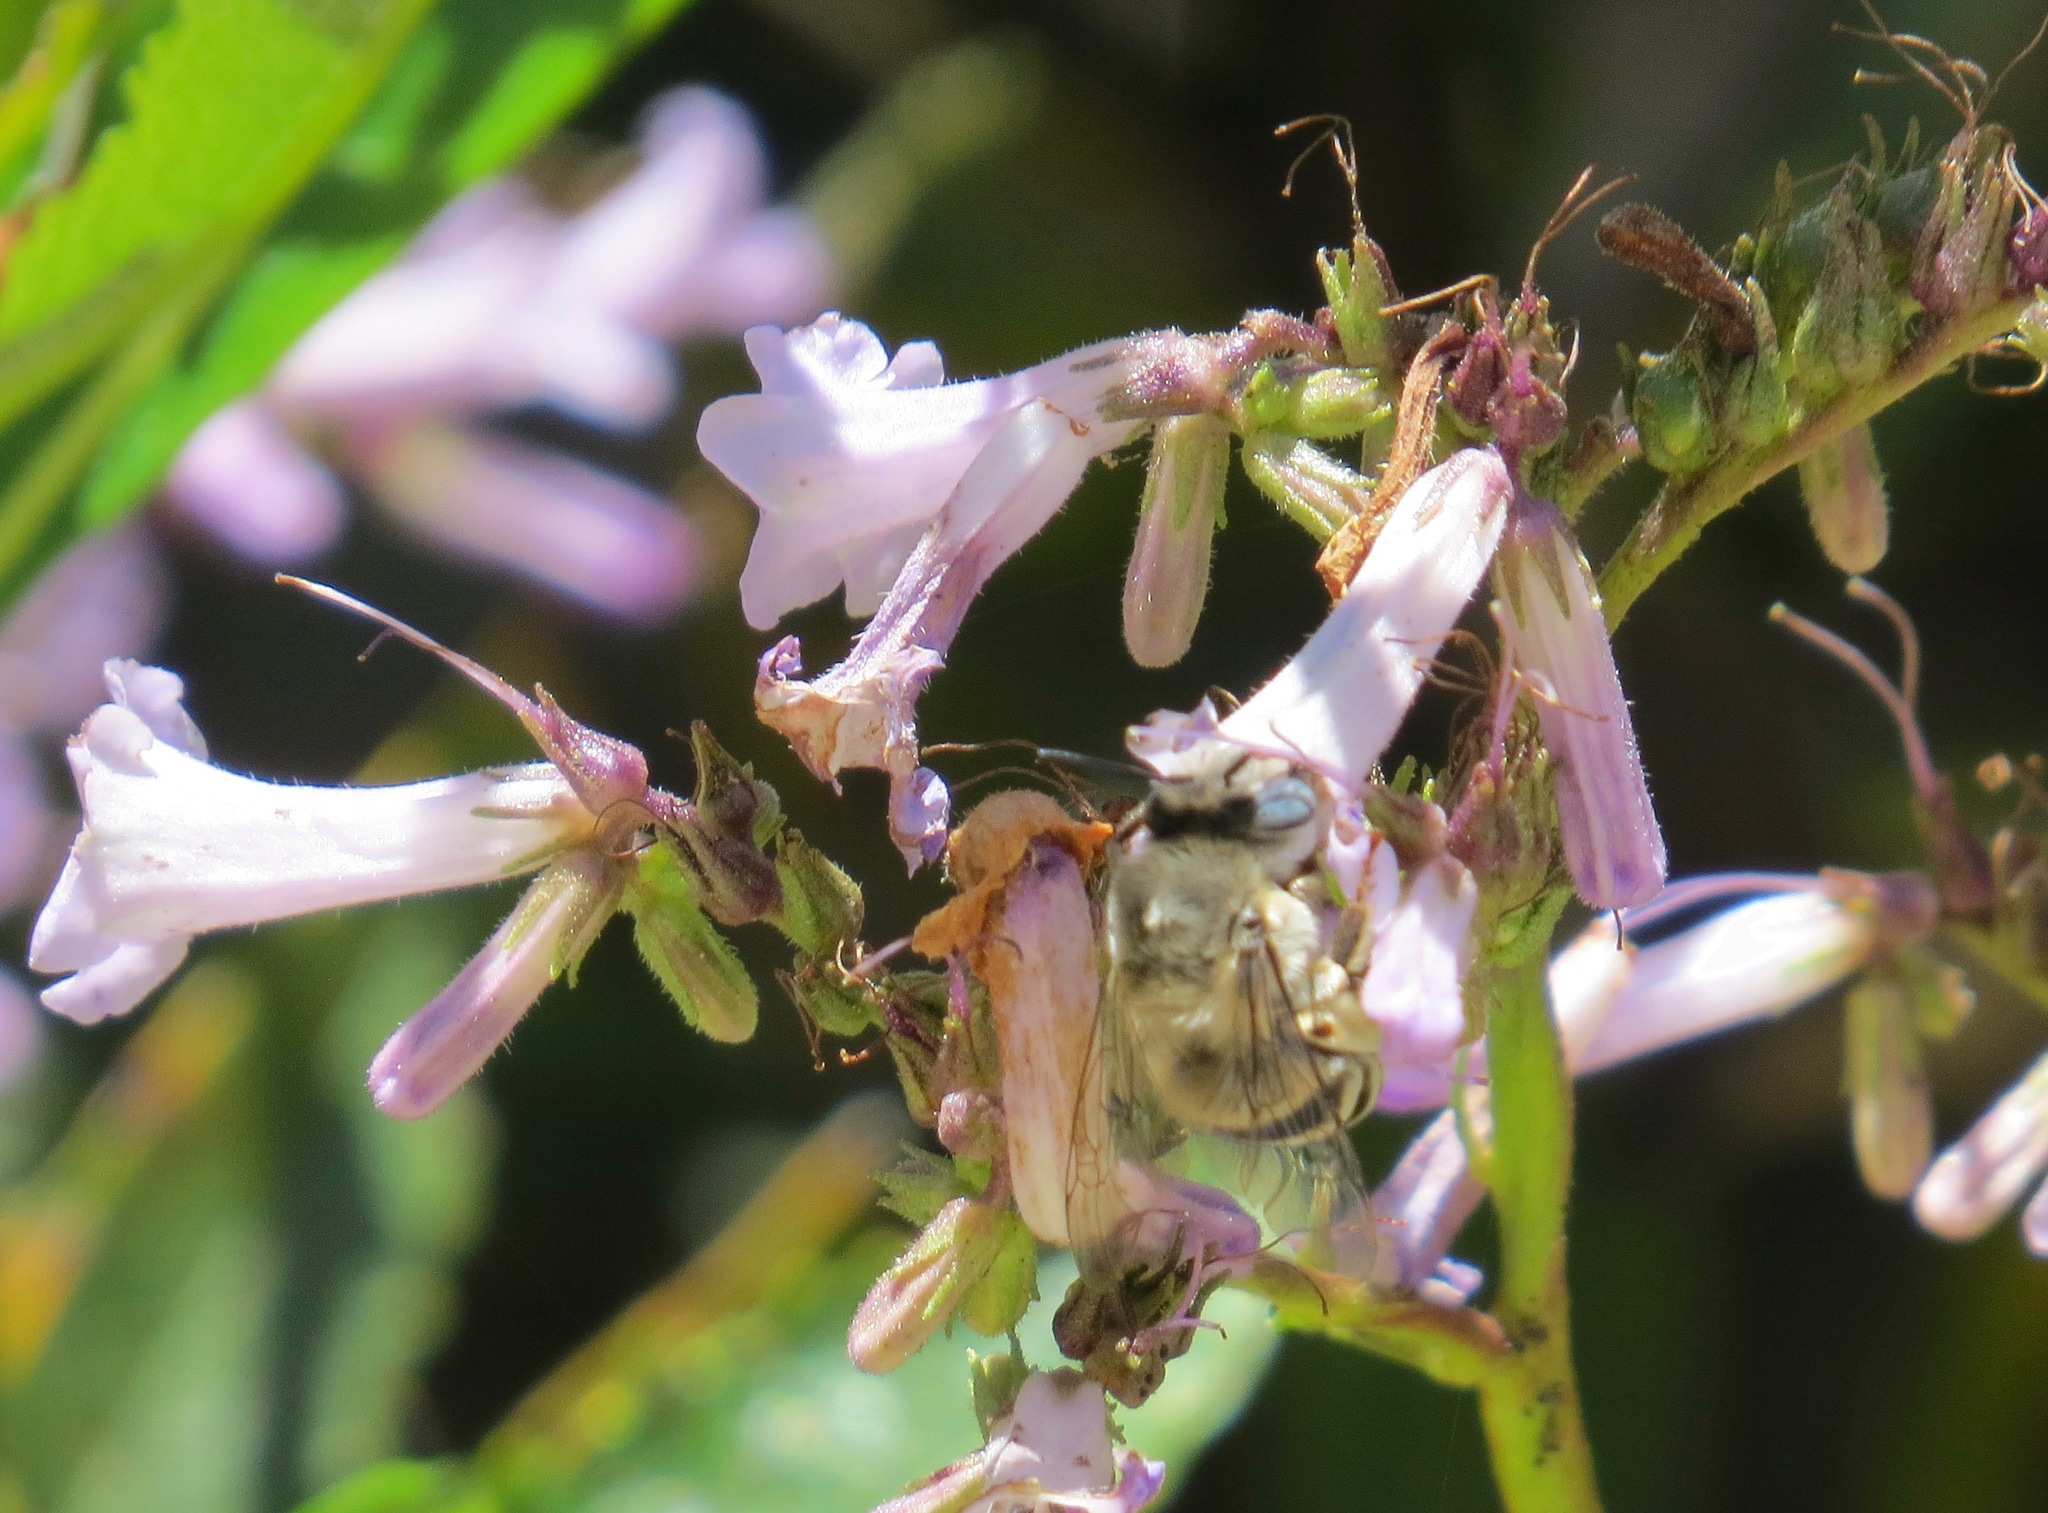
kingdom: Animalia
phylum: Arthropoda
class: Insecta
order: Hymenoptera
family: Apidae
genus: Anthophora
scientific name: Anthophora urbana
